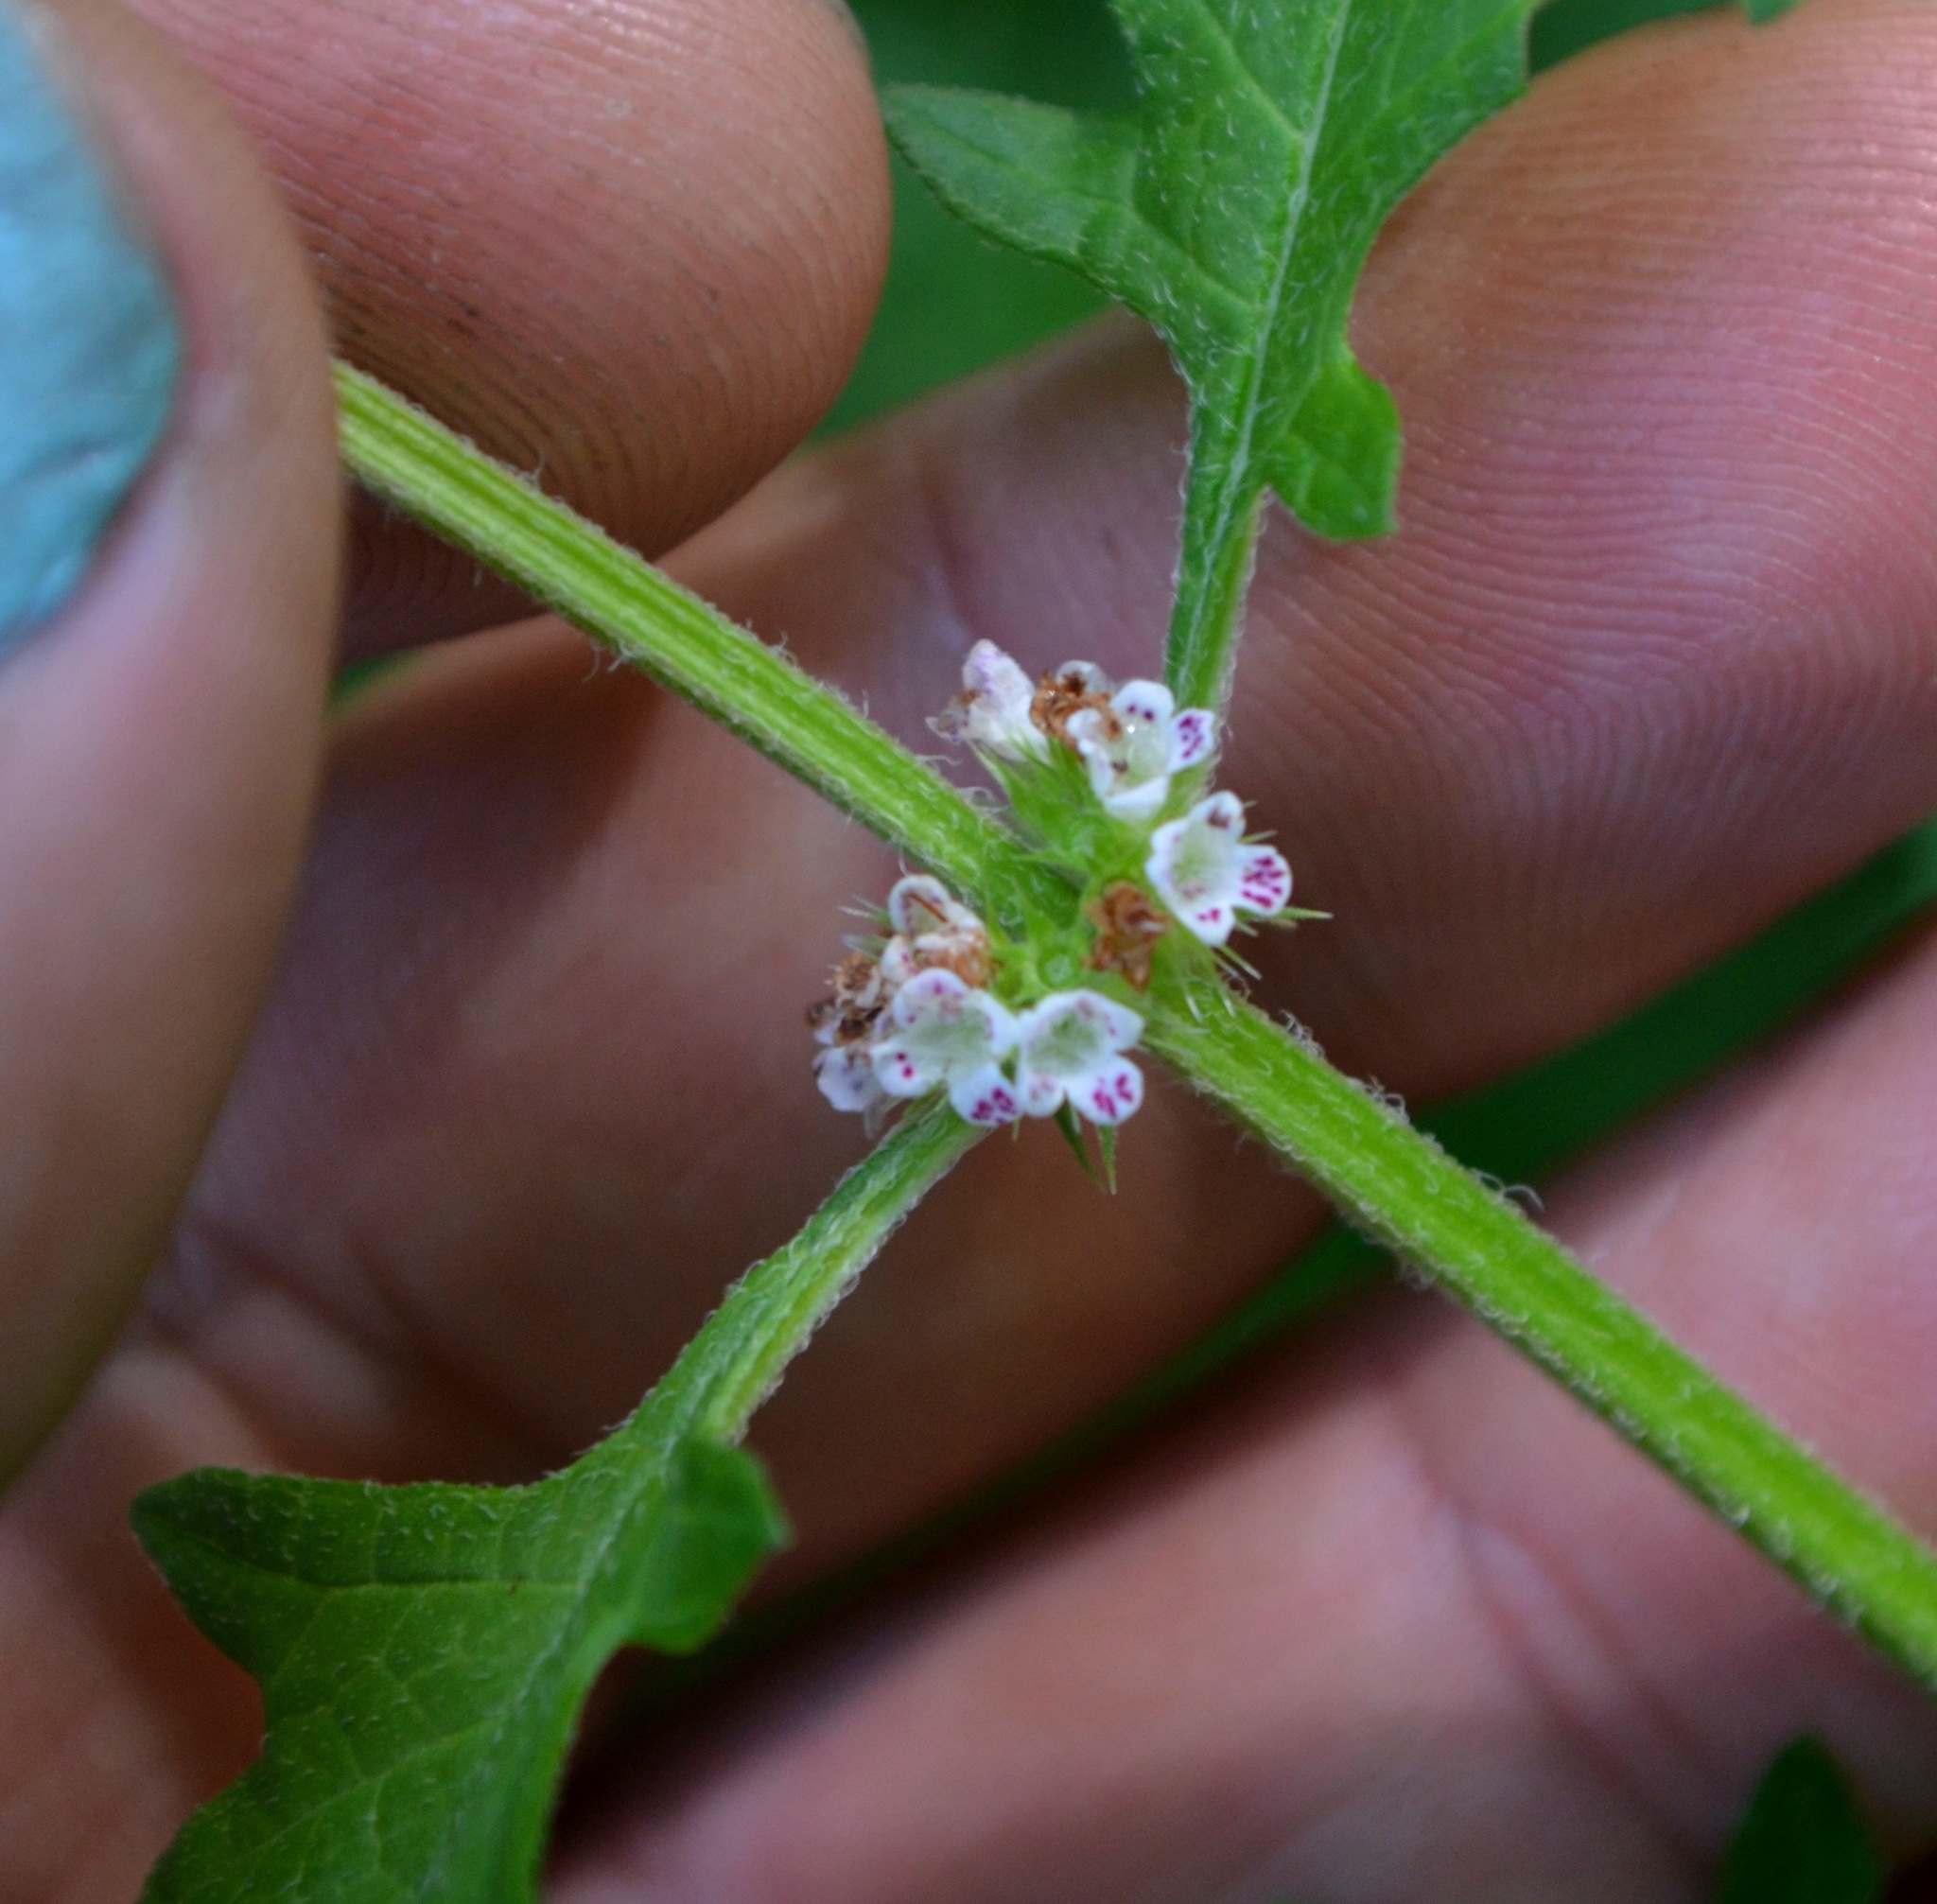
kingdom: Plantae
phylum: Tracheophyta
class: Magnoliopsida
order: Lamiales
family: Lamiaceae
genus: Lycopus
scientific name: Lycopus europaeus
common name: European bugleweed
